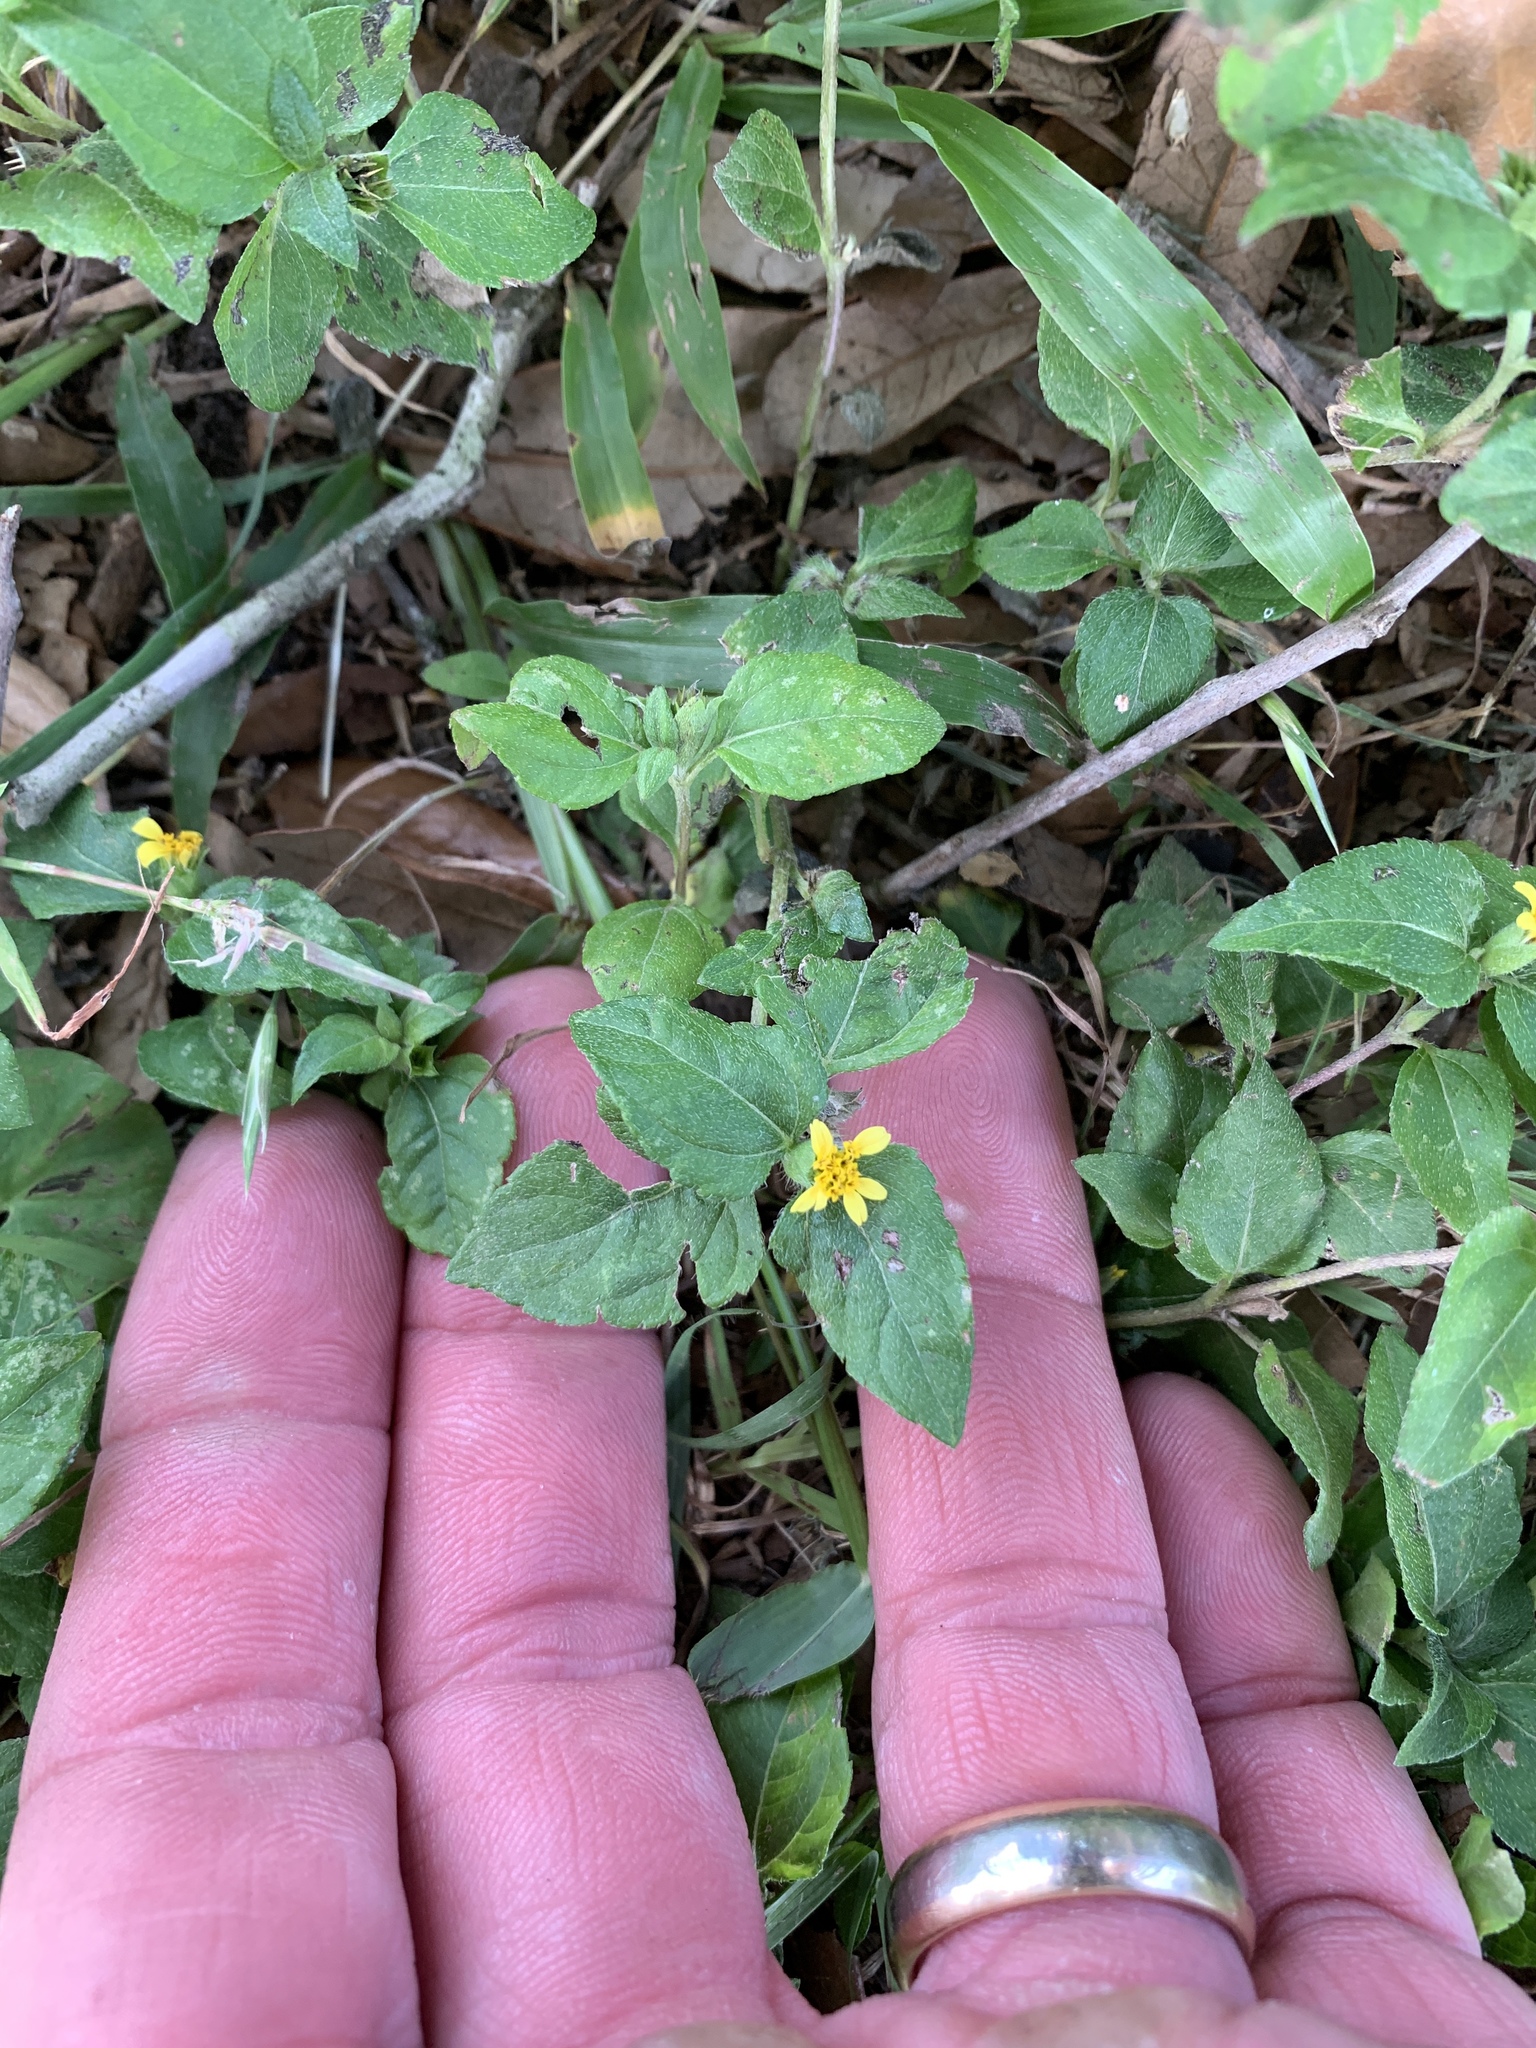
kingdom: Plantae
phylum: Tracheophyta
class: Magnoliopsida
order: Asterales
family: Asteraceae
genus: Calyptocarpus
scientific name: Calyptocarpus vialis
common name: Straggler daisy
